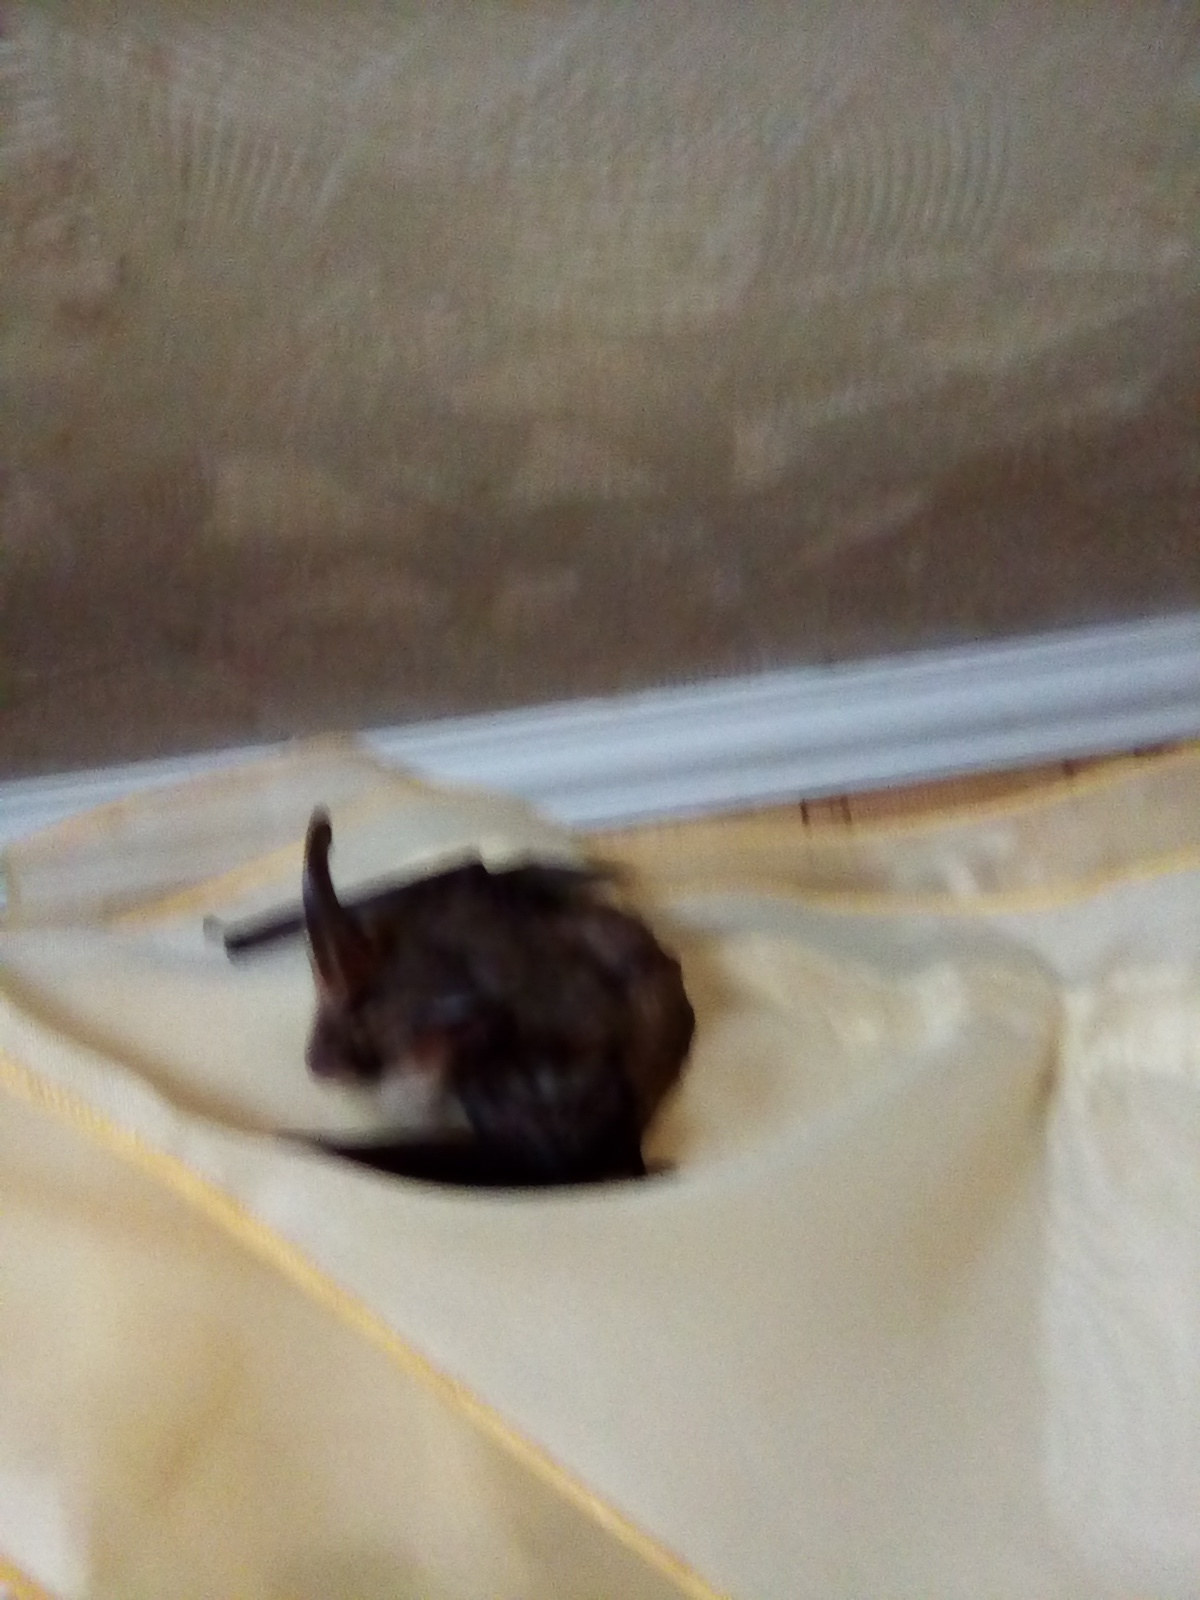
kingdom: Animalia
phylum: Chordata
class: Mammalia
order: Chiroptera
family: Vespertilionidae
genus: Plecotus
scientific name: Plecotus auritus
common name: Brown long-eared bat
